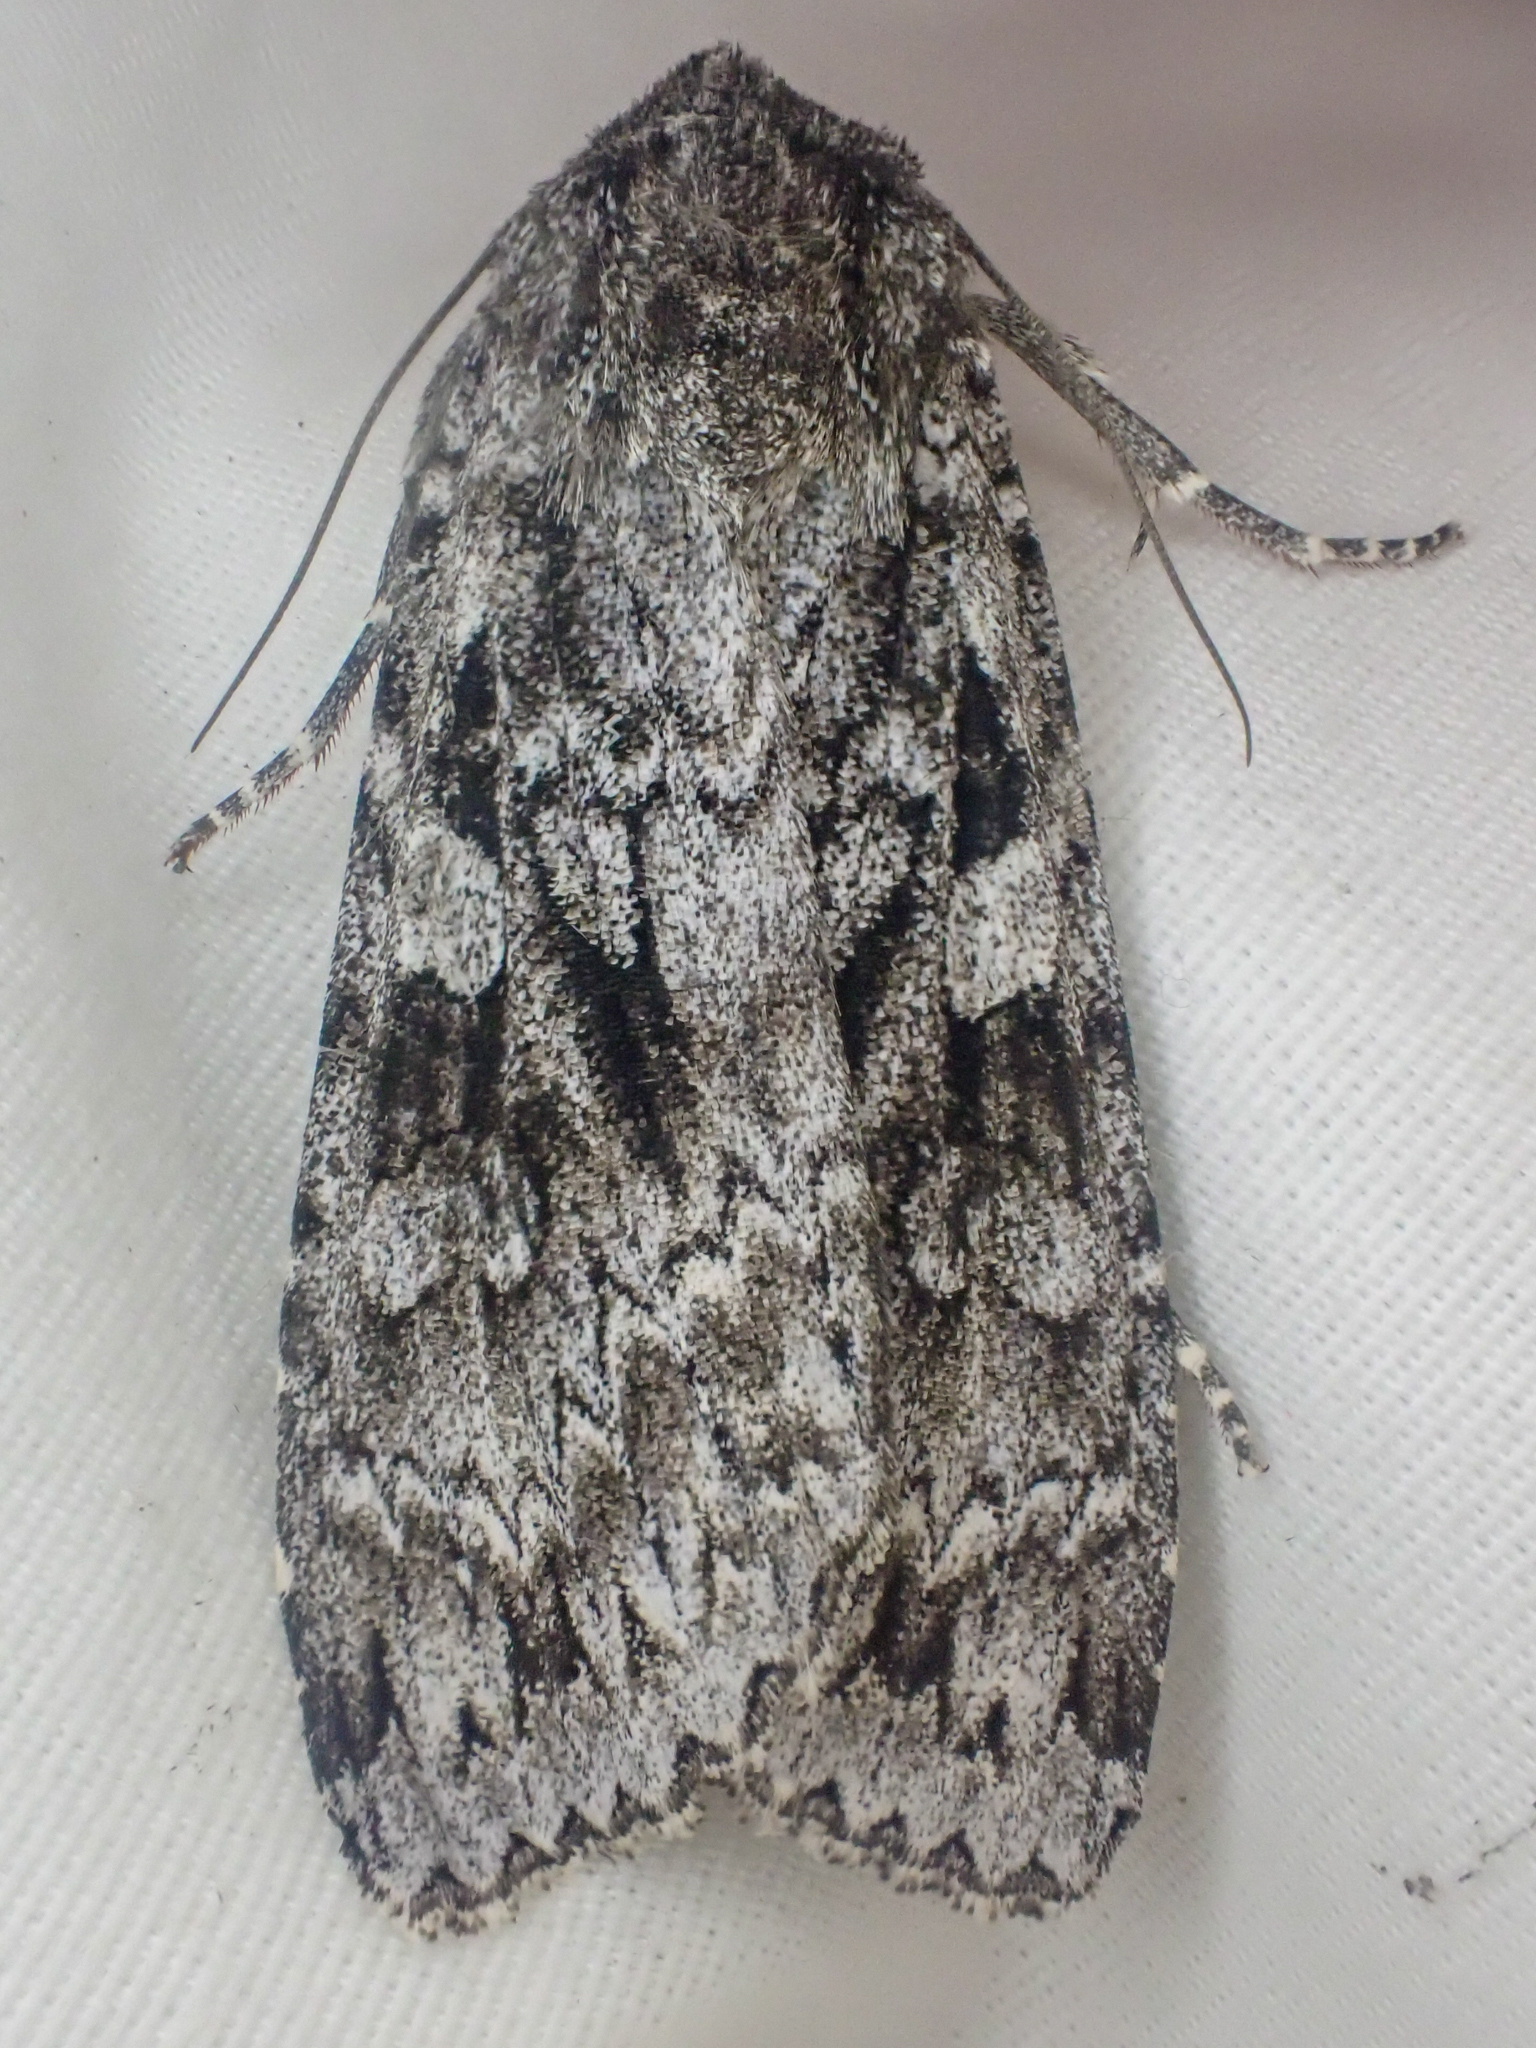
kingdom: Animalia
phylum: Arthropoda
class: Insecta
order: Lepidoptera
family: Noctuidae
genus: Eurois
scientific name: Eurois occulta
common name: Great brocade
